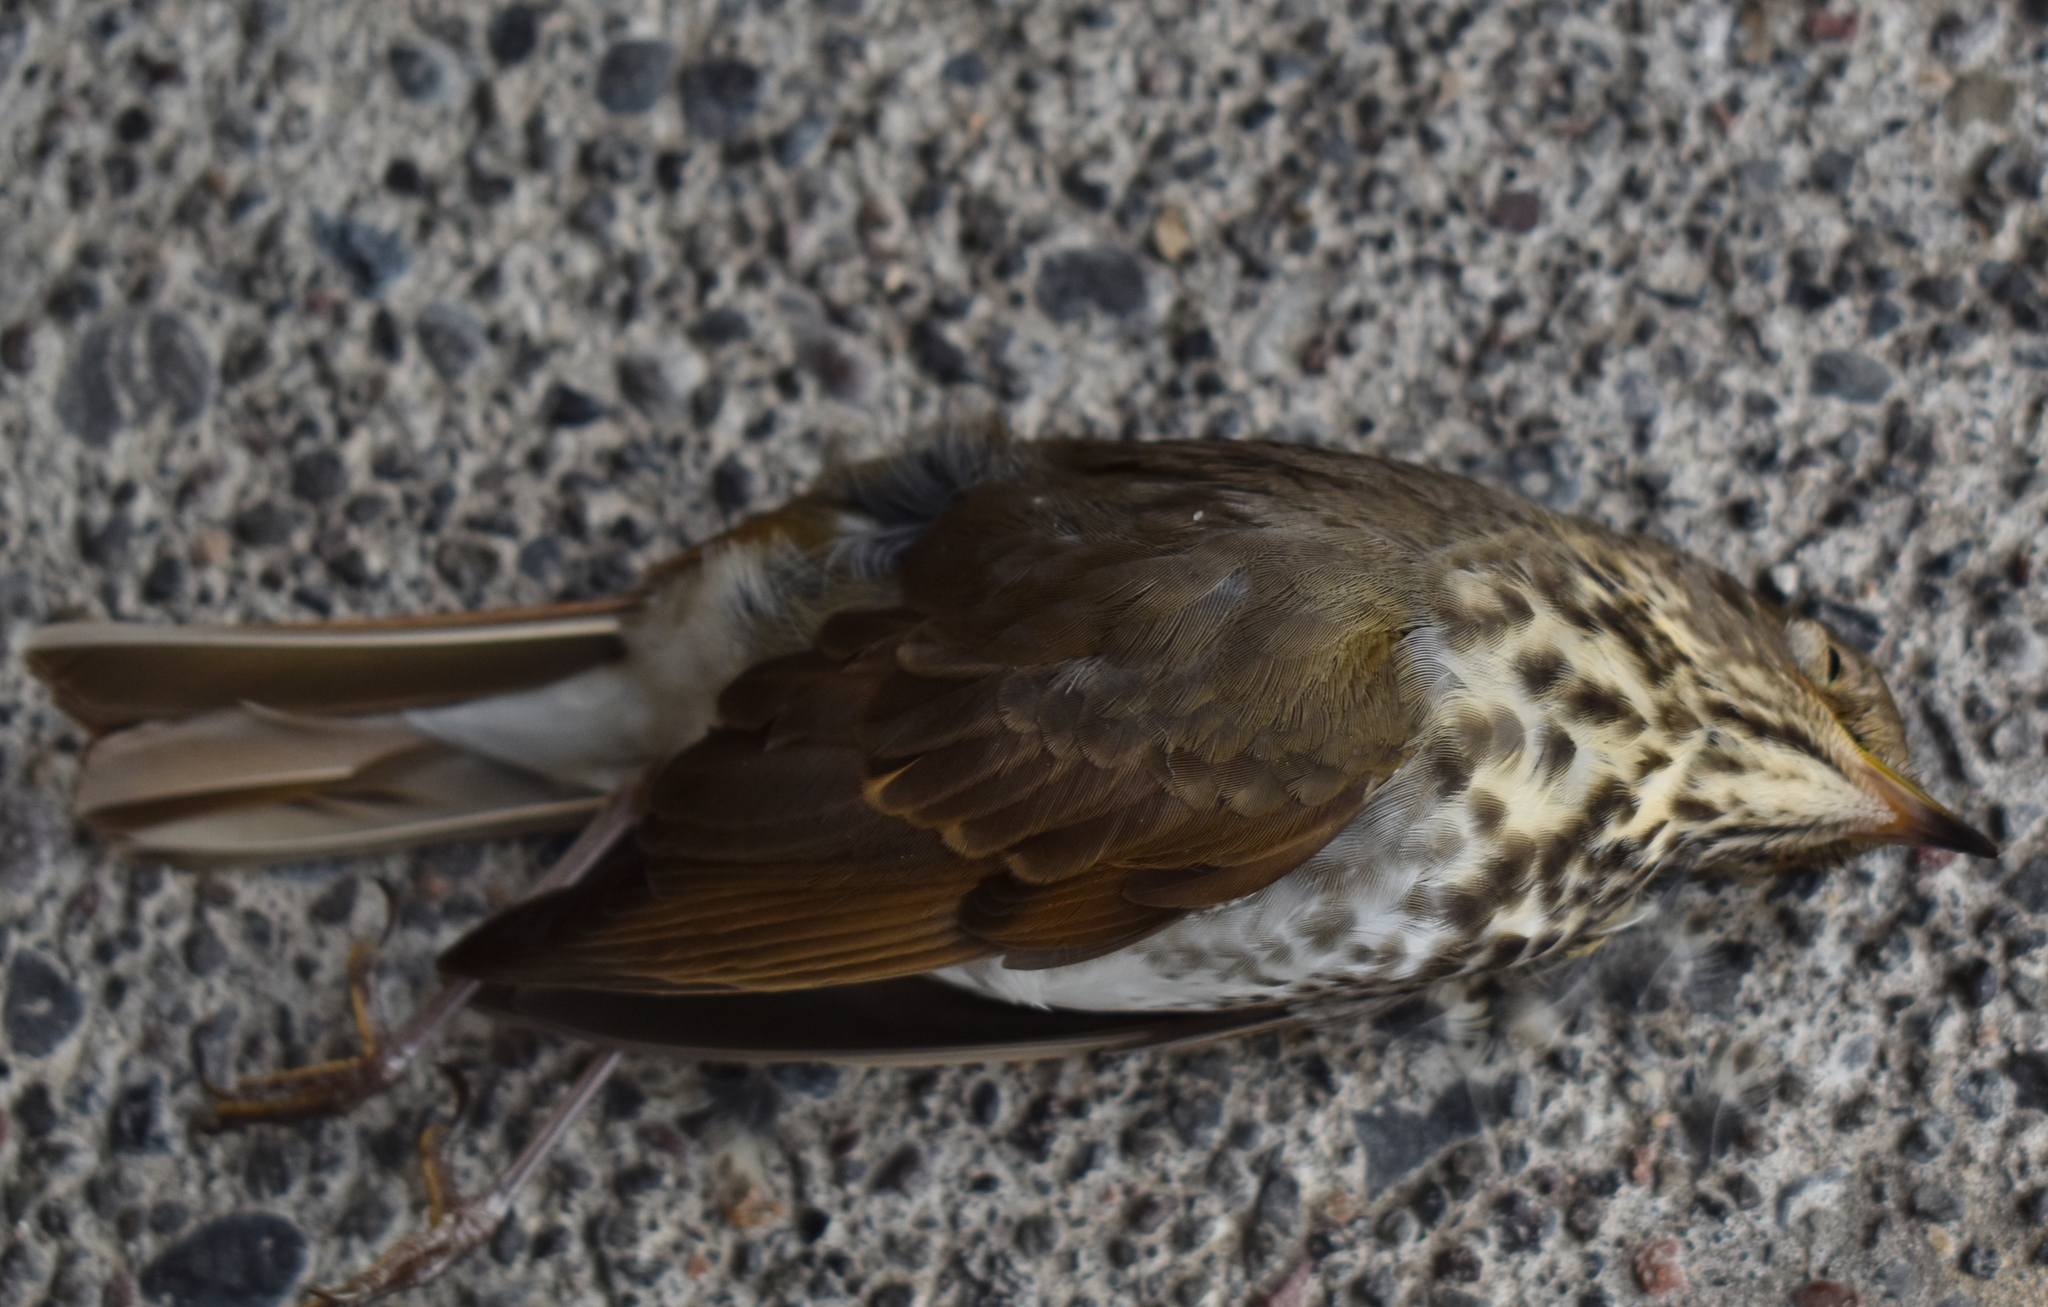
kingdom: Animalia
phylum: Chordata
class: Aves
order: Passeriformes
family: Turdidae
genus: Catharus
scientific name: Catharus guttatus
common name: Hermit thrush
